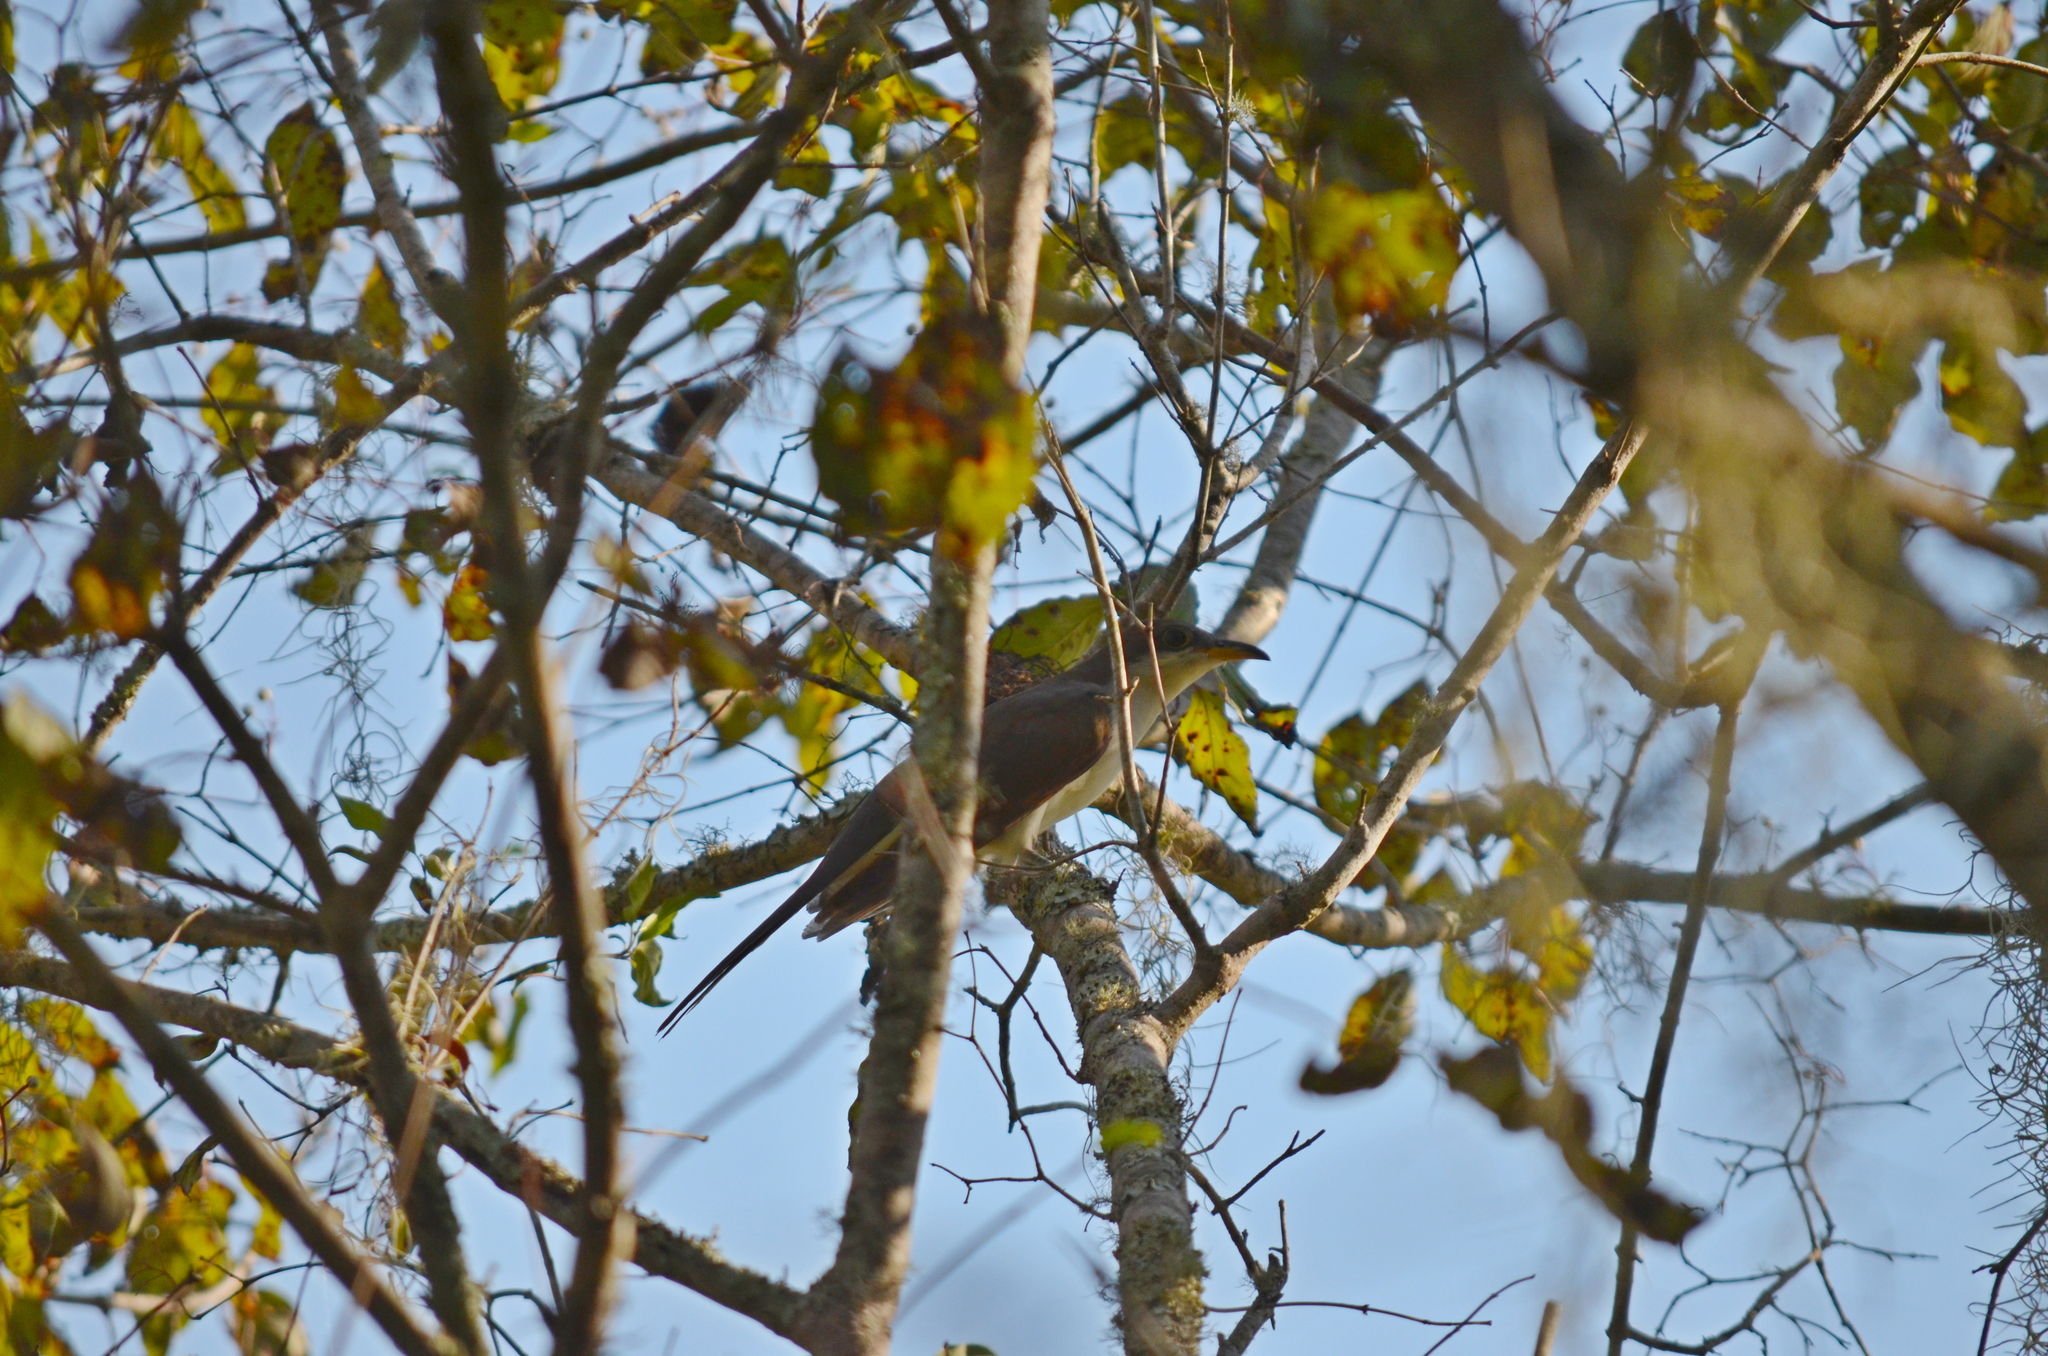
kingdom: Animalia
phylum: Chordata
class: Aves
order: Cuculiformes
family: Cuculidae
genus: Coccyzus
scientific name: Coccyzus americanus
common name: Yellow-billed cuckoo
